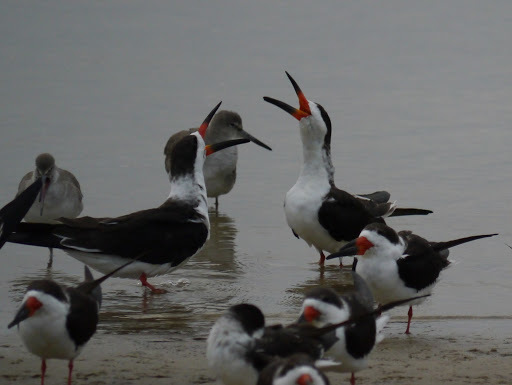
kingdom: Animalia
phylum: Chordata
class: Aves
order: Charadriiformes
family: Laridae
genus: Rynchops
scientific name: Rynchops niger
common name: Black skimmer
